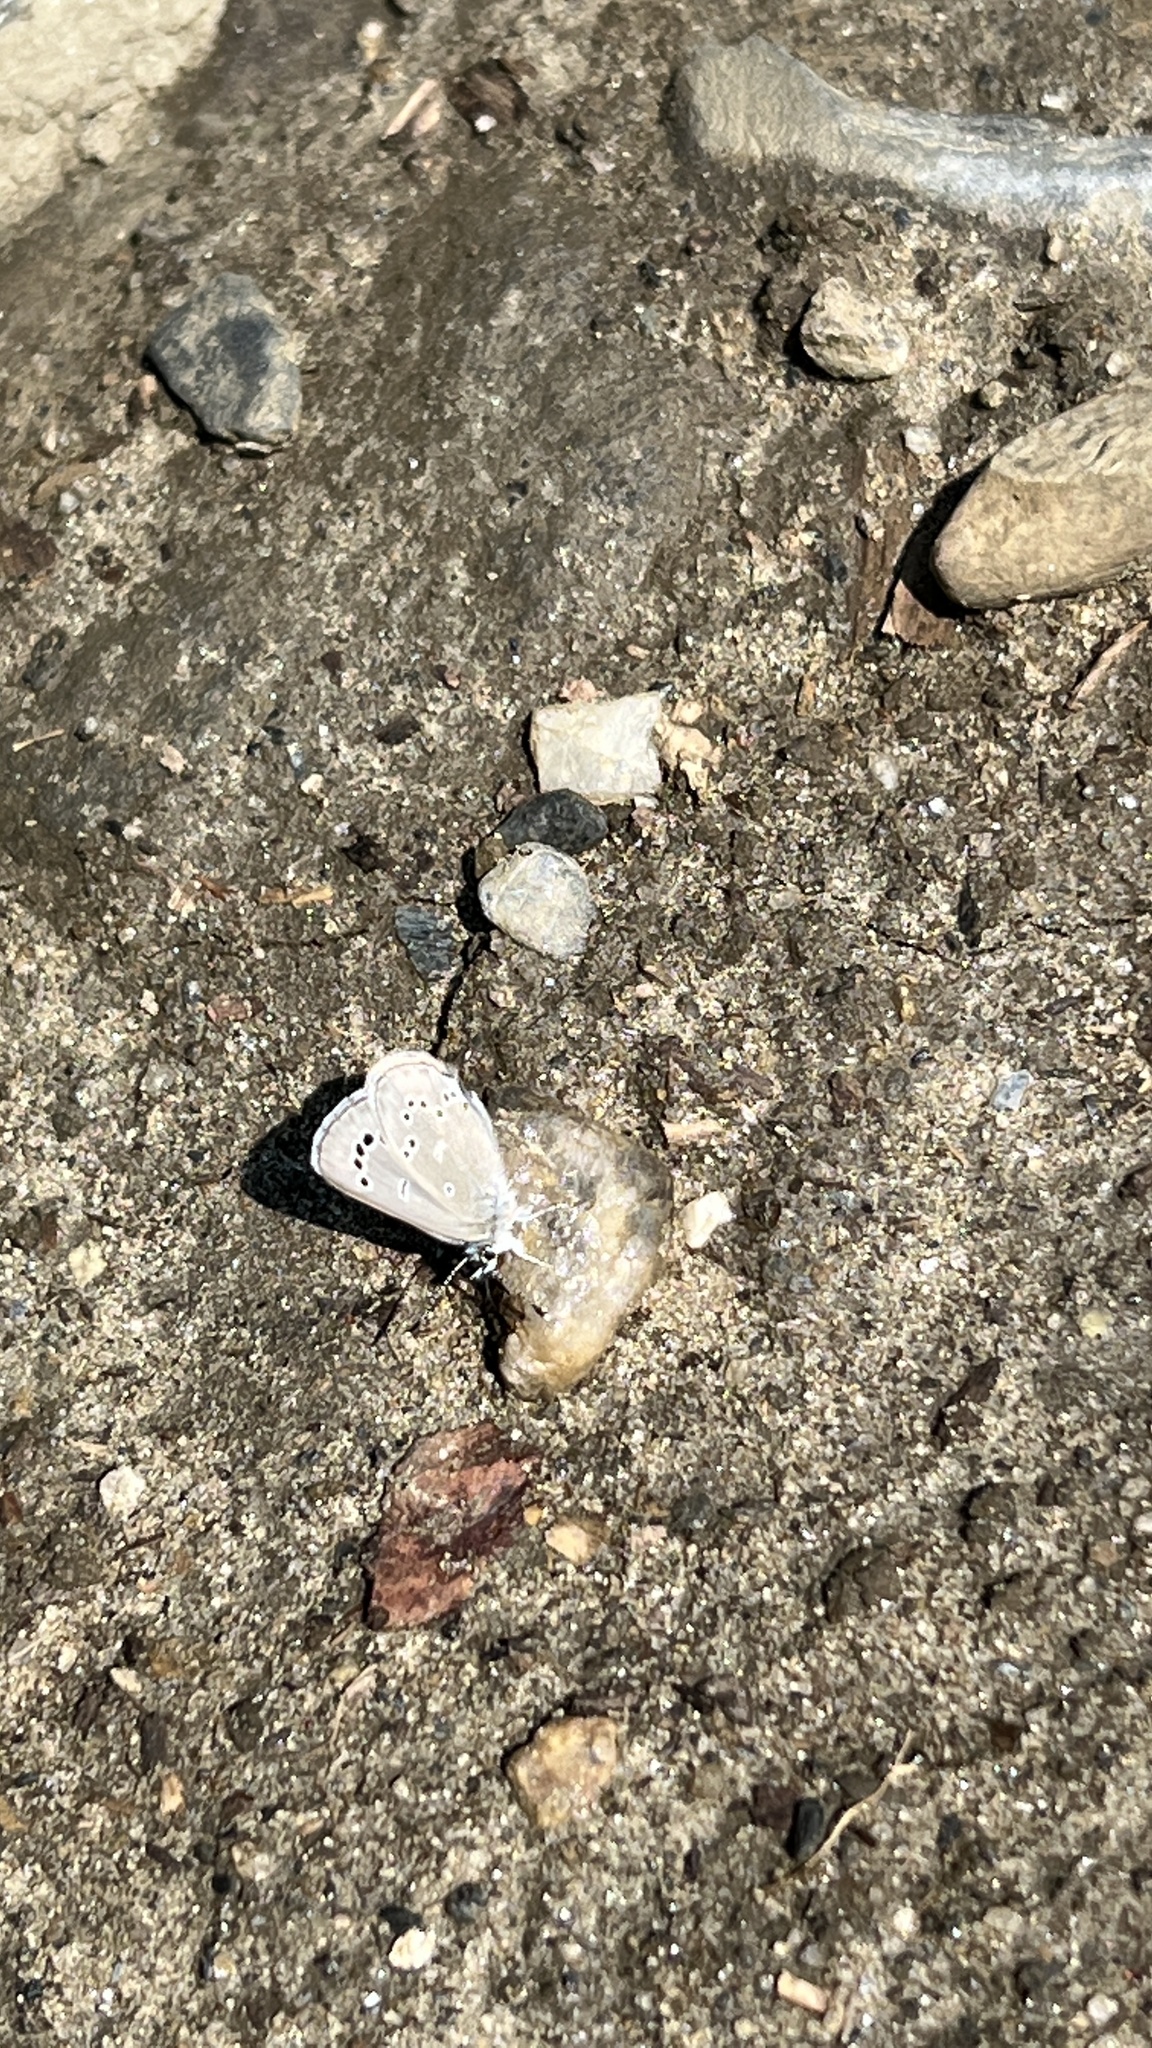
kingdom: Animalia
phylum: Arthropoda
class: Insecta
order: Lepidoptera
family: Lycaenidae
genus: Glaucopsyche
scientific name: Glaucopsyche lygdamus
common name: Silvery blue
